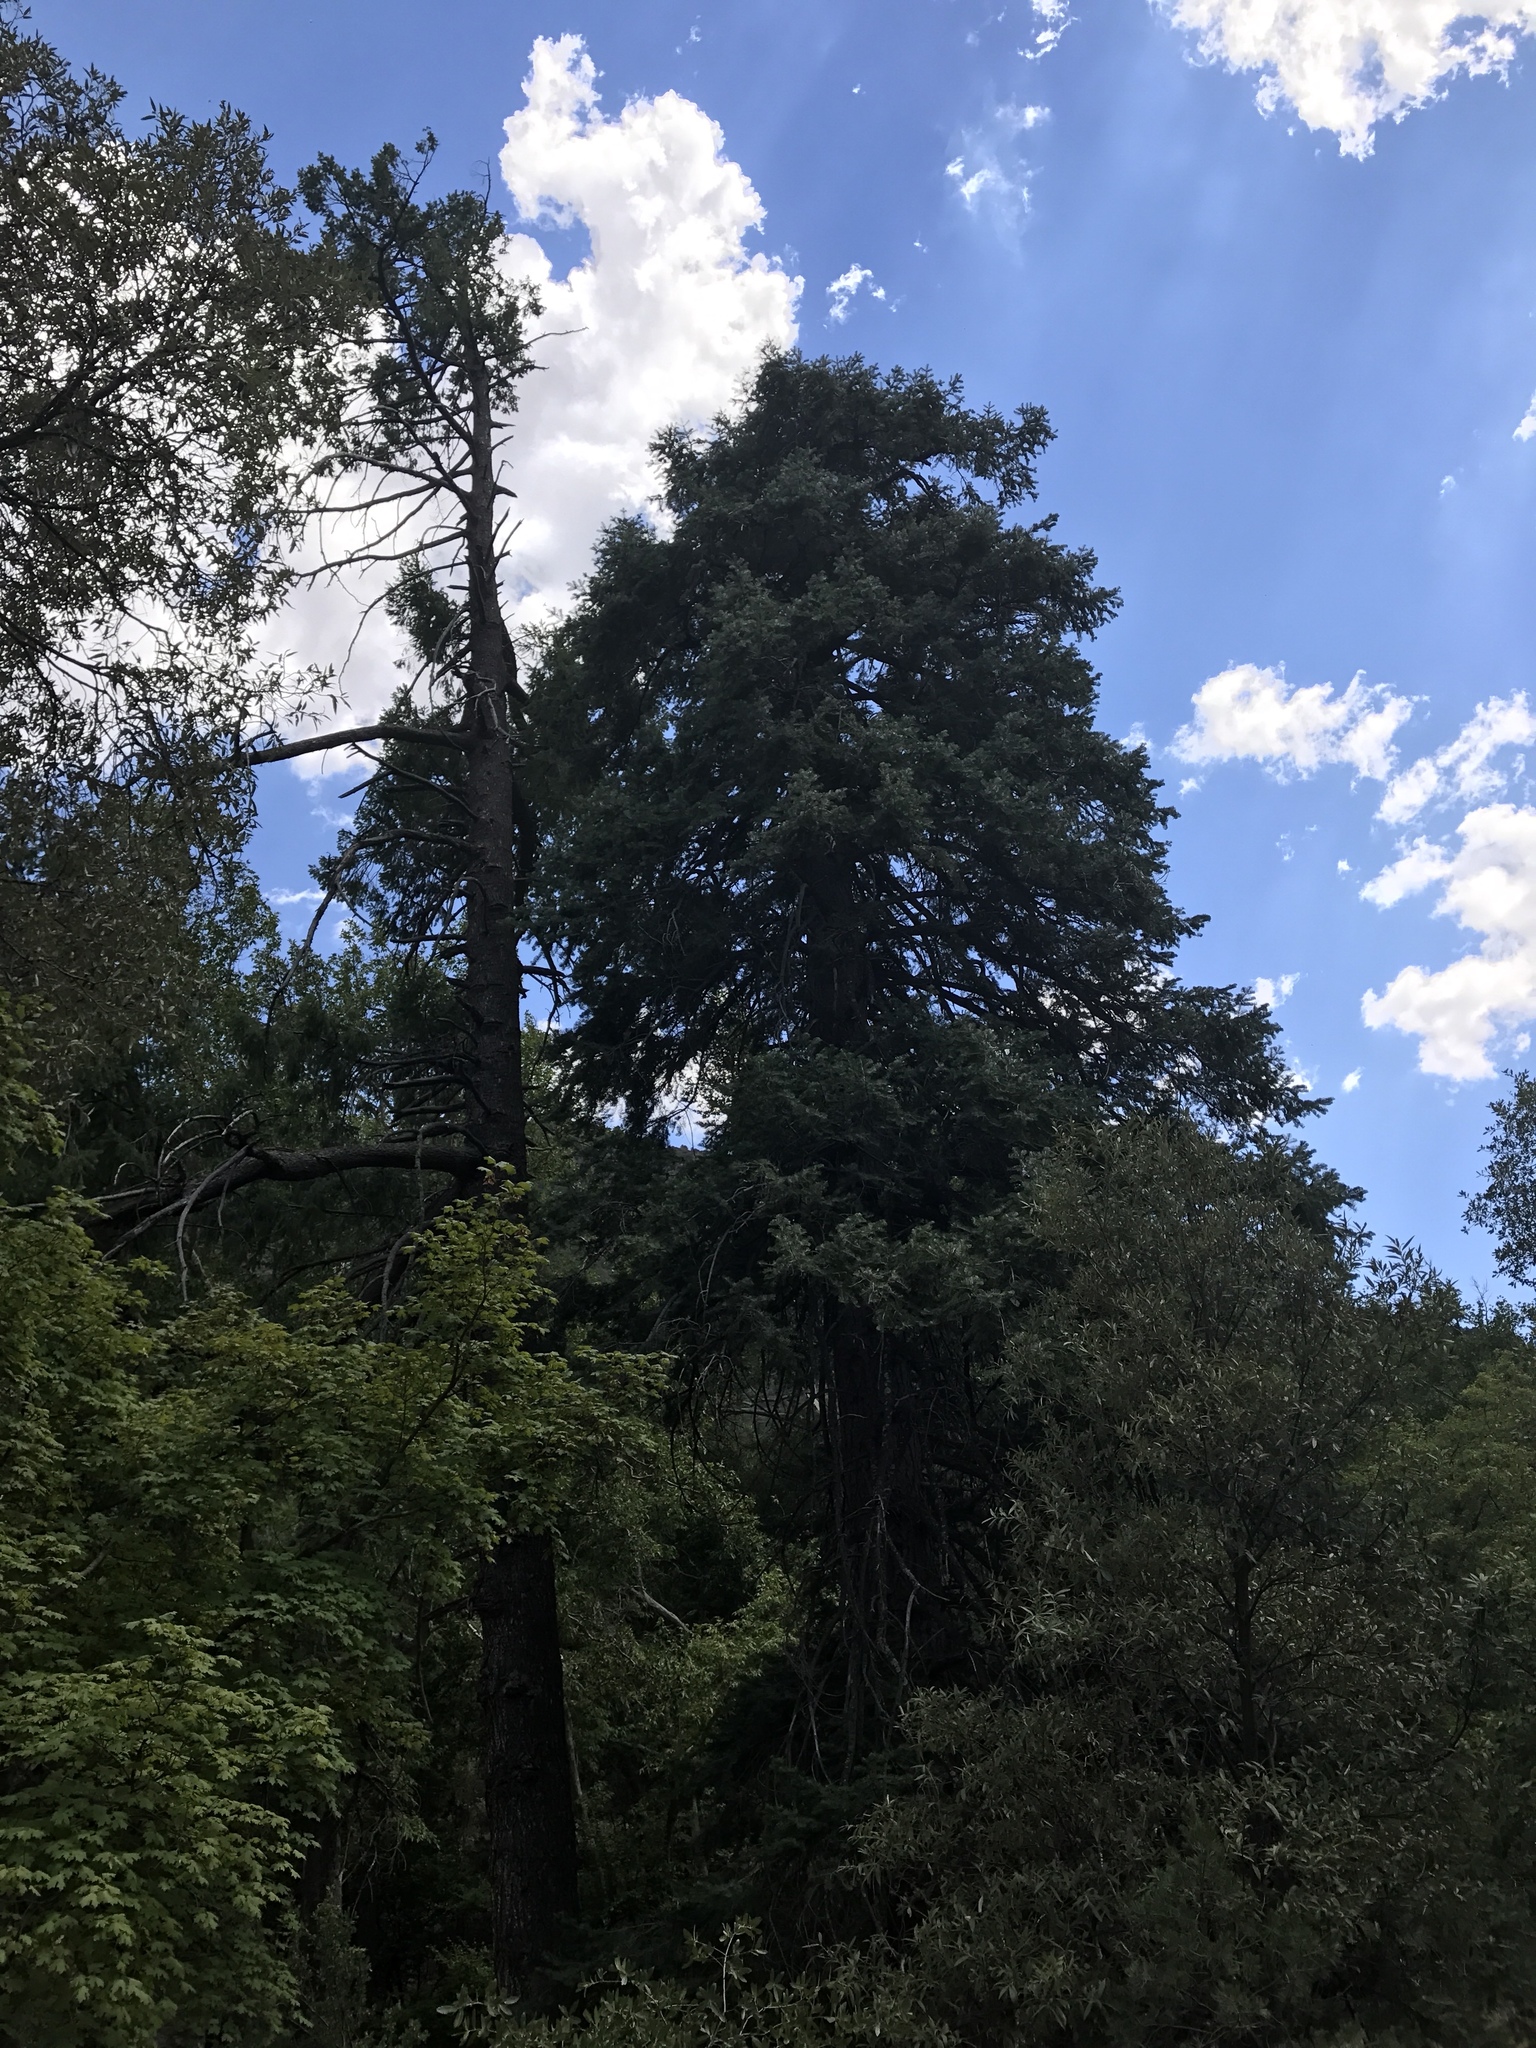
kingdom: Plantae
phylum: Tracheophyta
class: Pinopsida
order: Pinales
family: Pinaceae
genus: Abies
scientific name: Abies concolor
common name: Colorado fir
